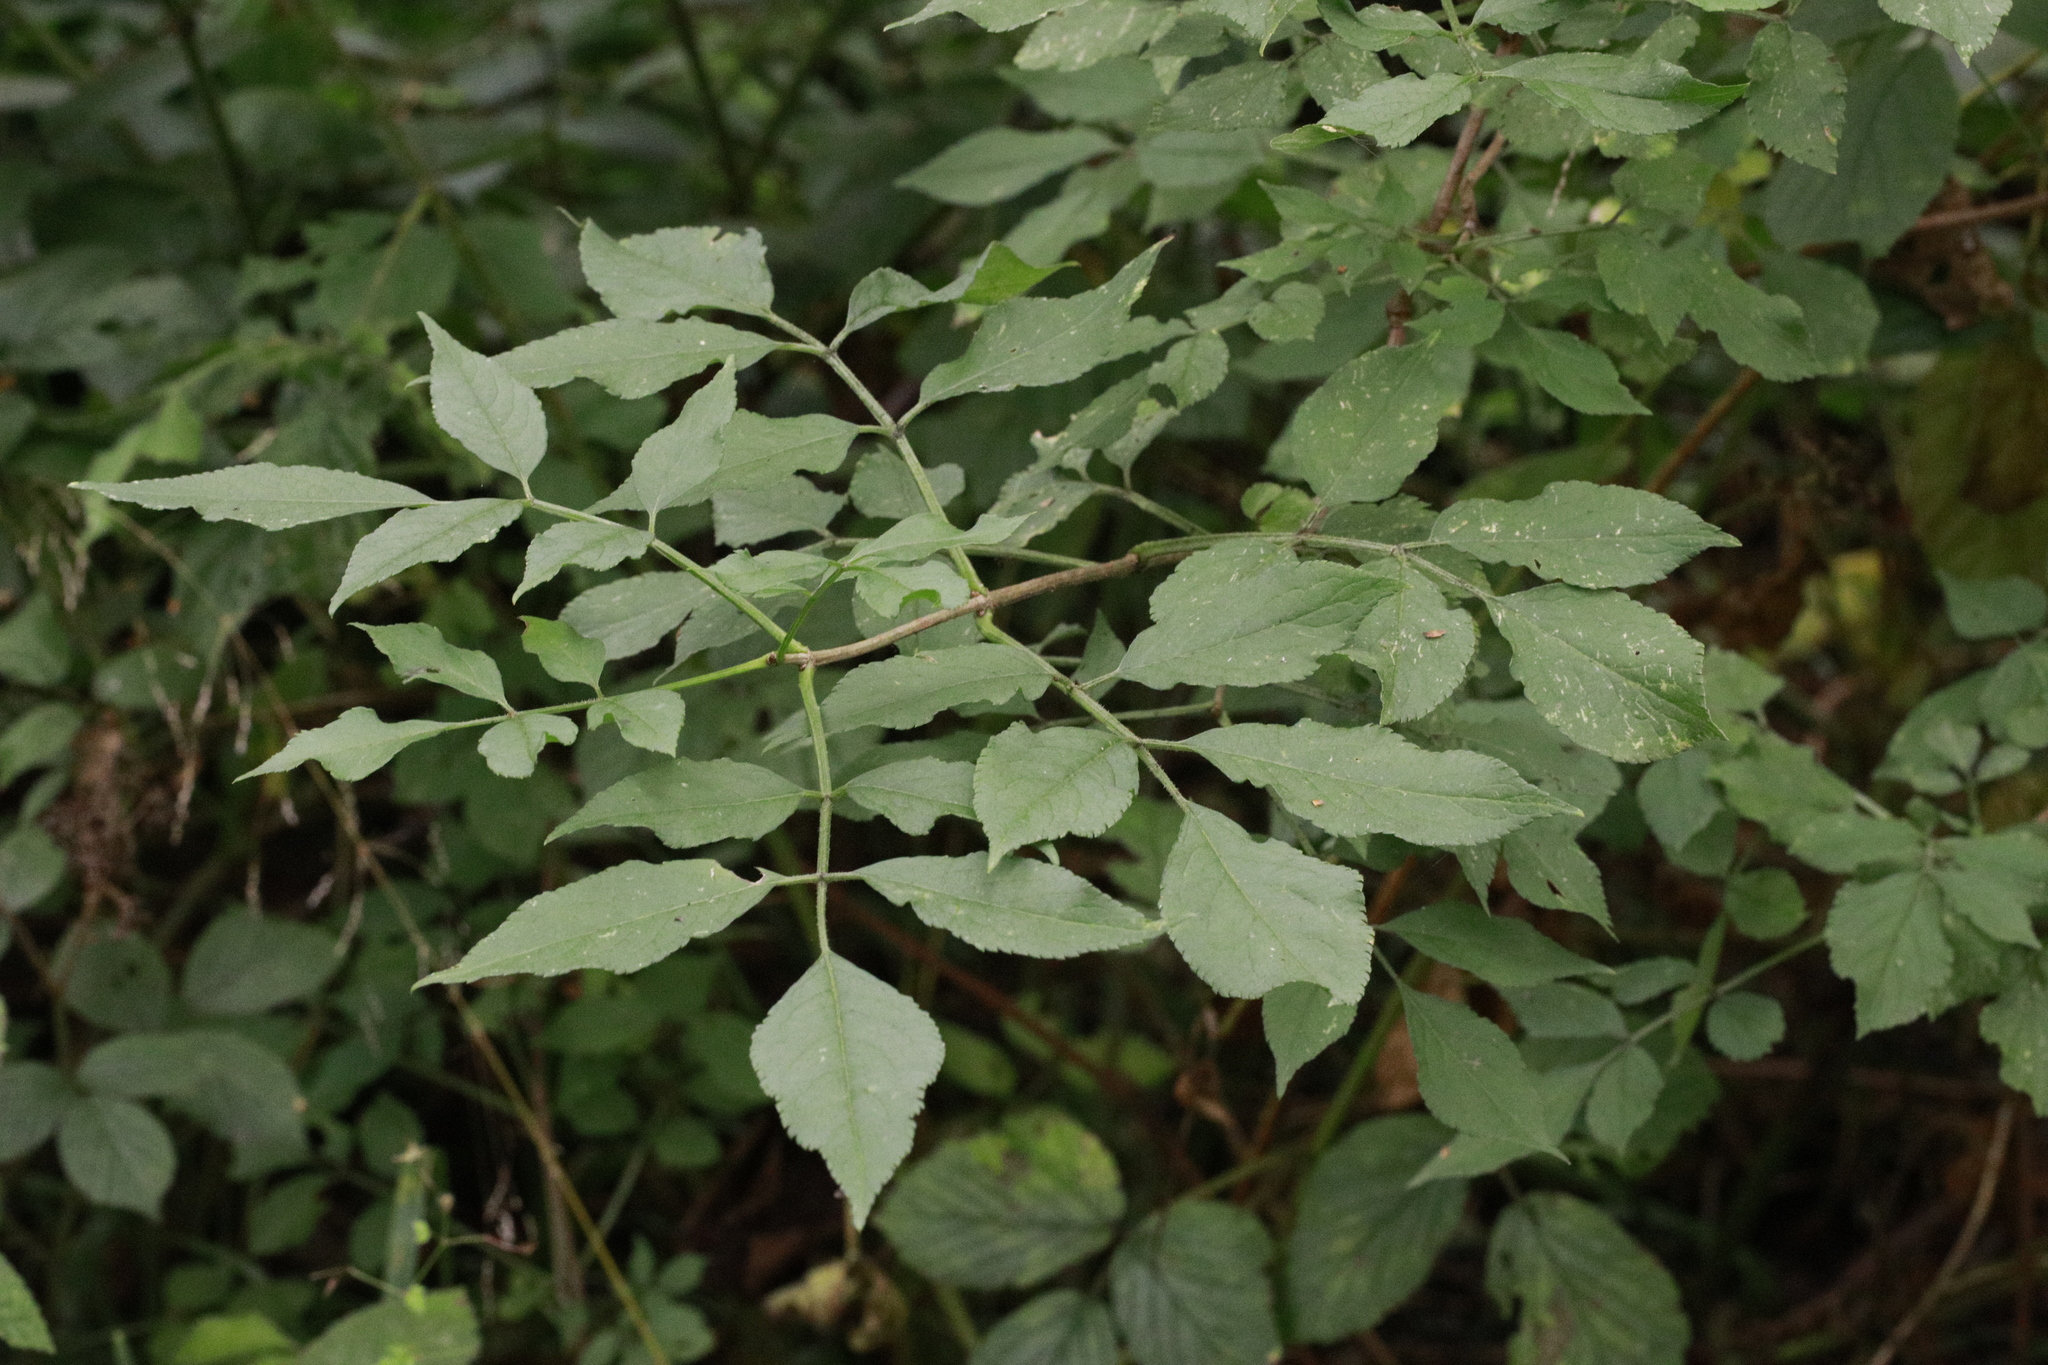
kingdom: Plantae
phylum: Tracheophyta
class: Magnoliopsida
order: Dipsacales
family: Viburnaceae
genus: Sambucus
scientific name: Sambucus nigra
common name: Elder
